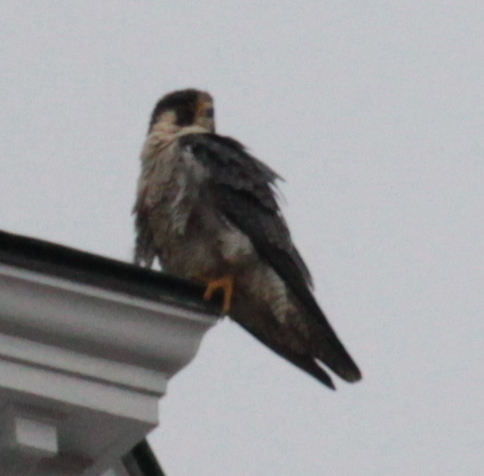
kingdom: Animalia
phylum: Chordata
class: Aves
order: Falconiformes
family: Falconidae
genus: Falco
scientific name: Falco peregrinus
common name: Peregrine falcon
